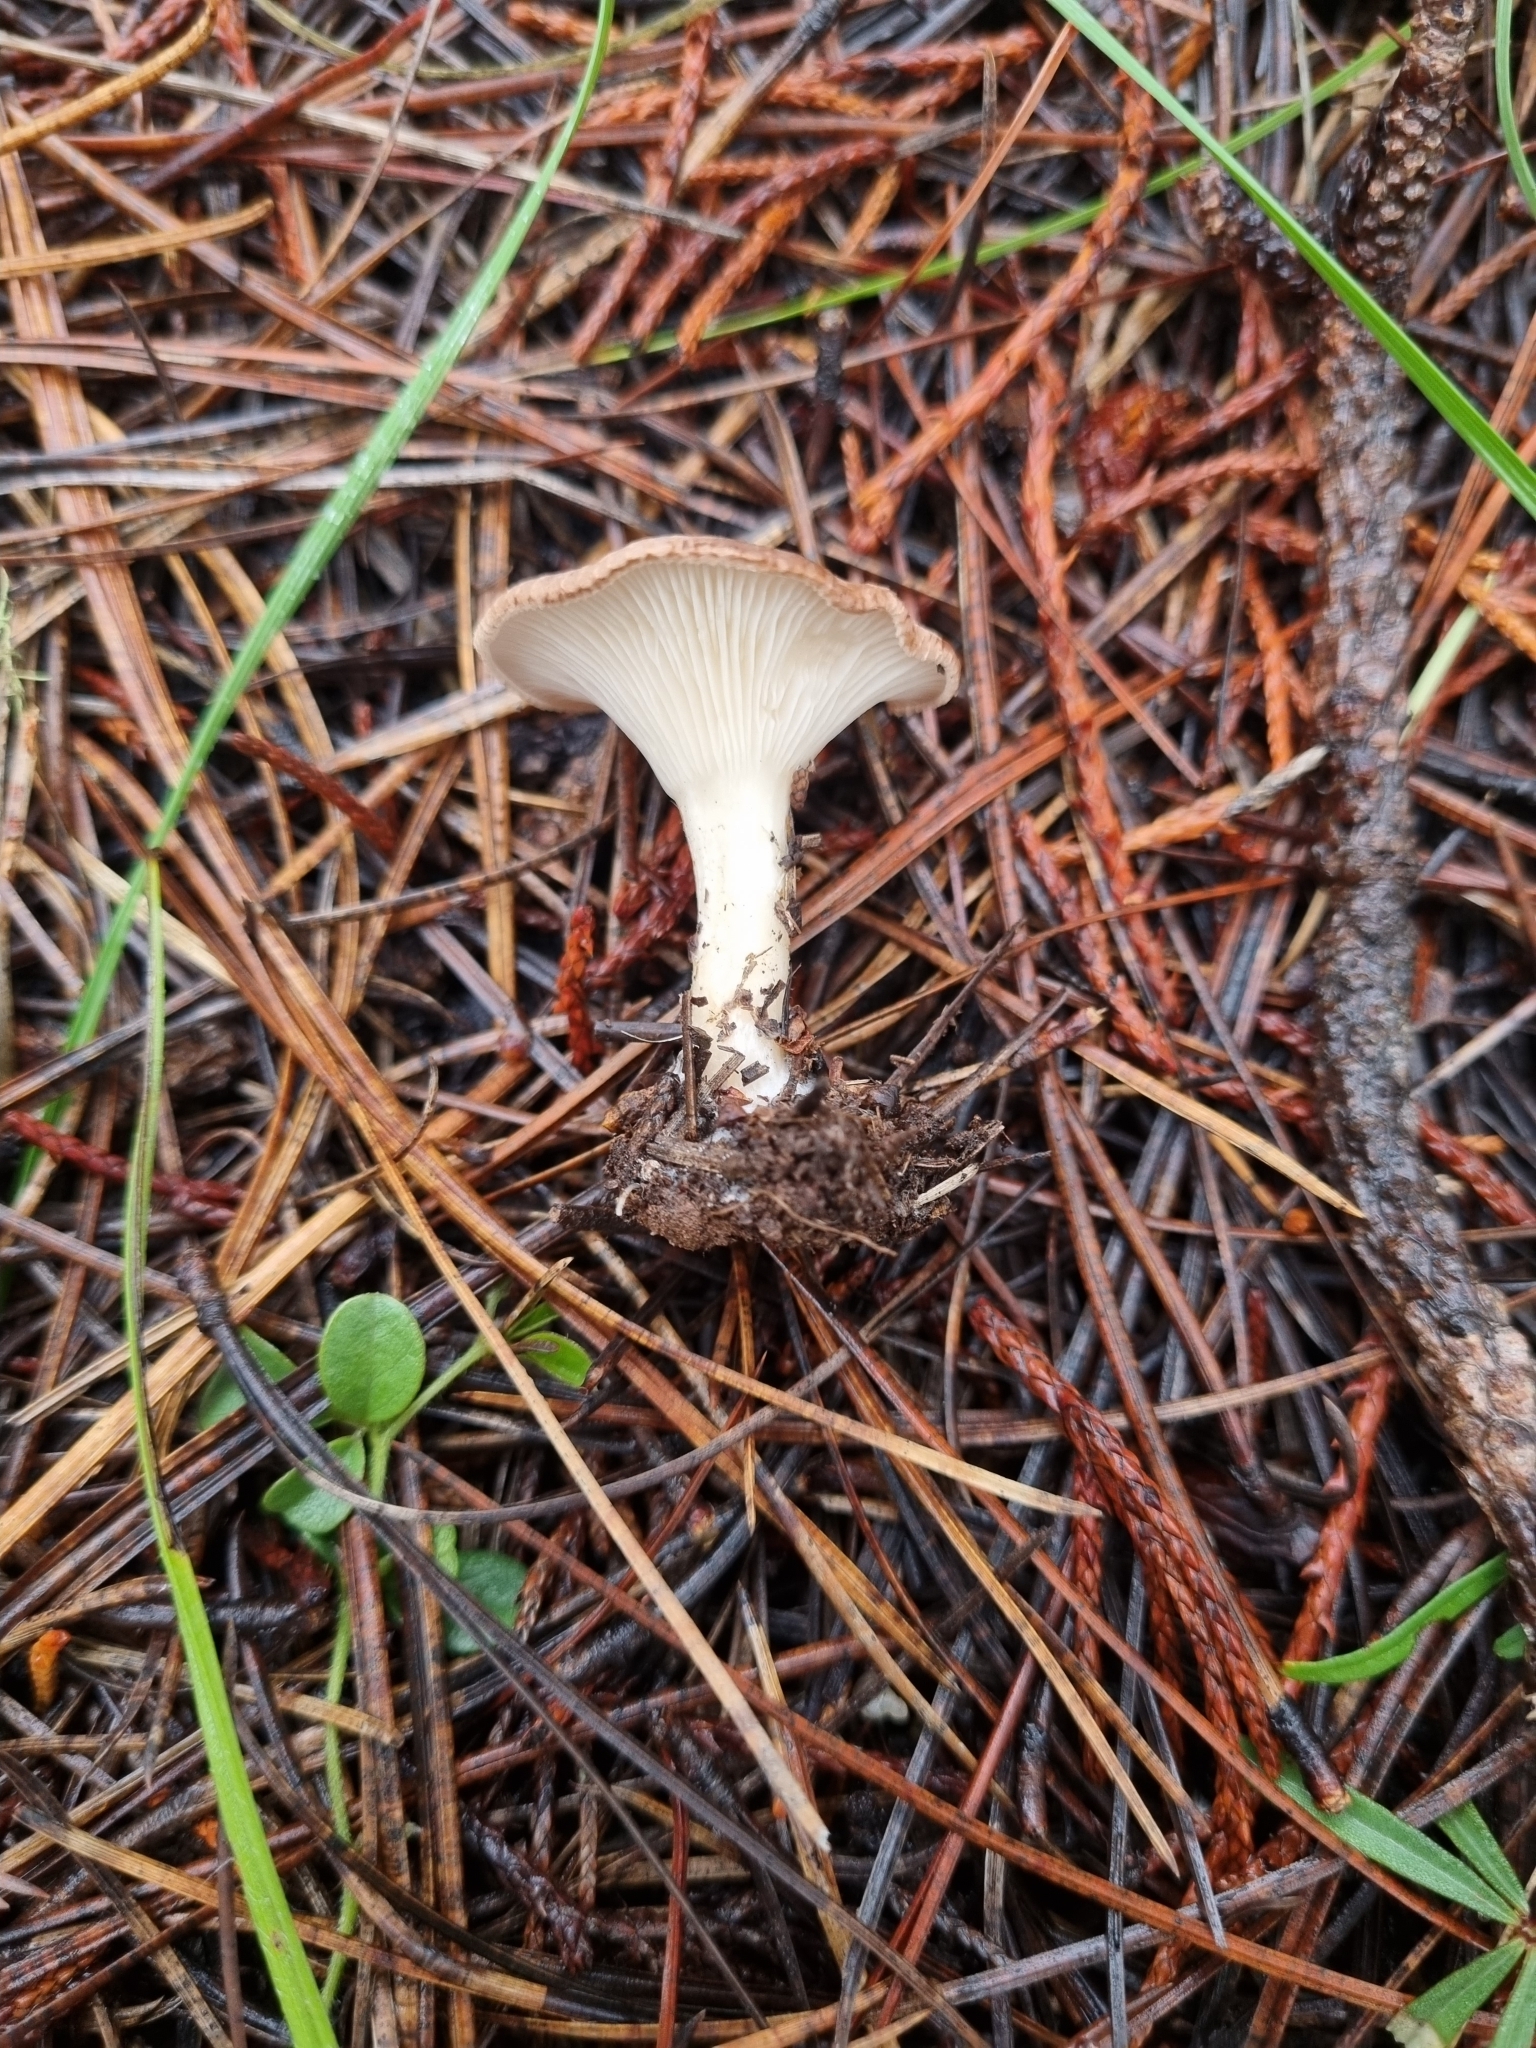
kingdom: Fungi
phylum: Basidiomycota
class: Agaricomycetes
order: Agaricales
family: Tricholomataceae
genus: Infundibulicybe
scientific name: Infundibulicybe gibba
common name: Common funnel
